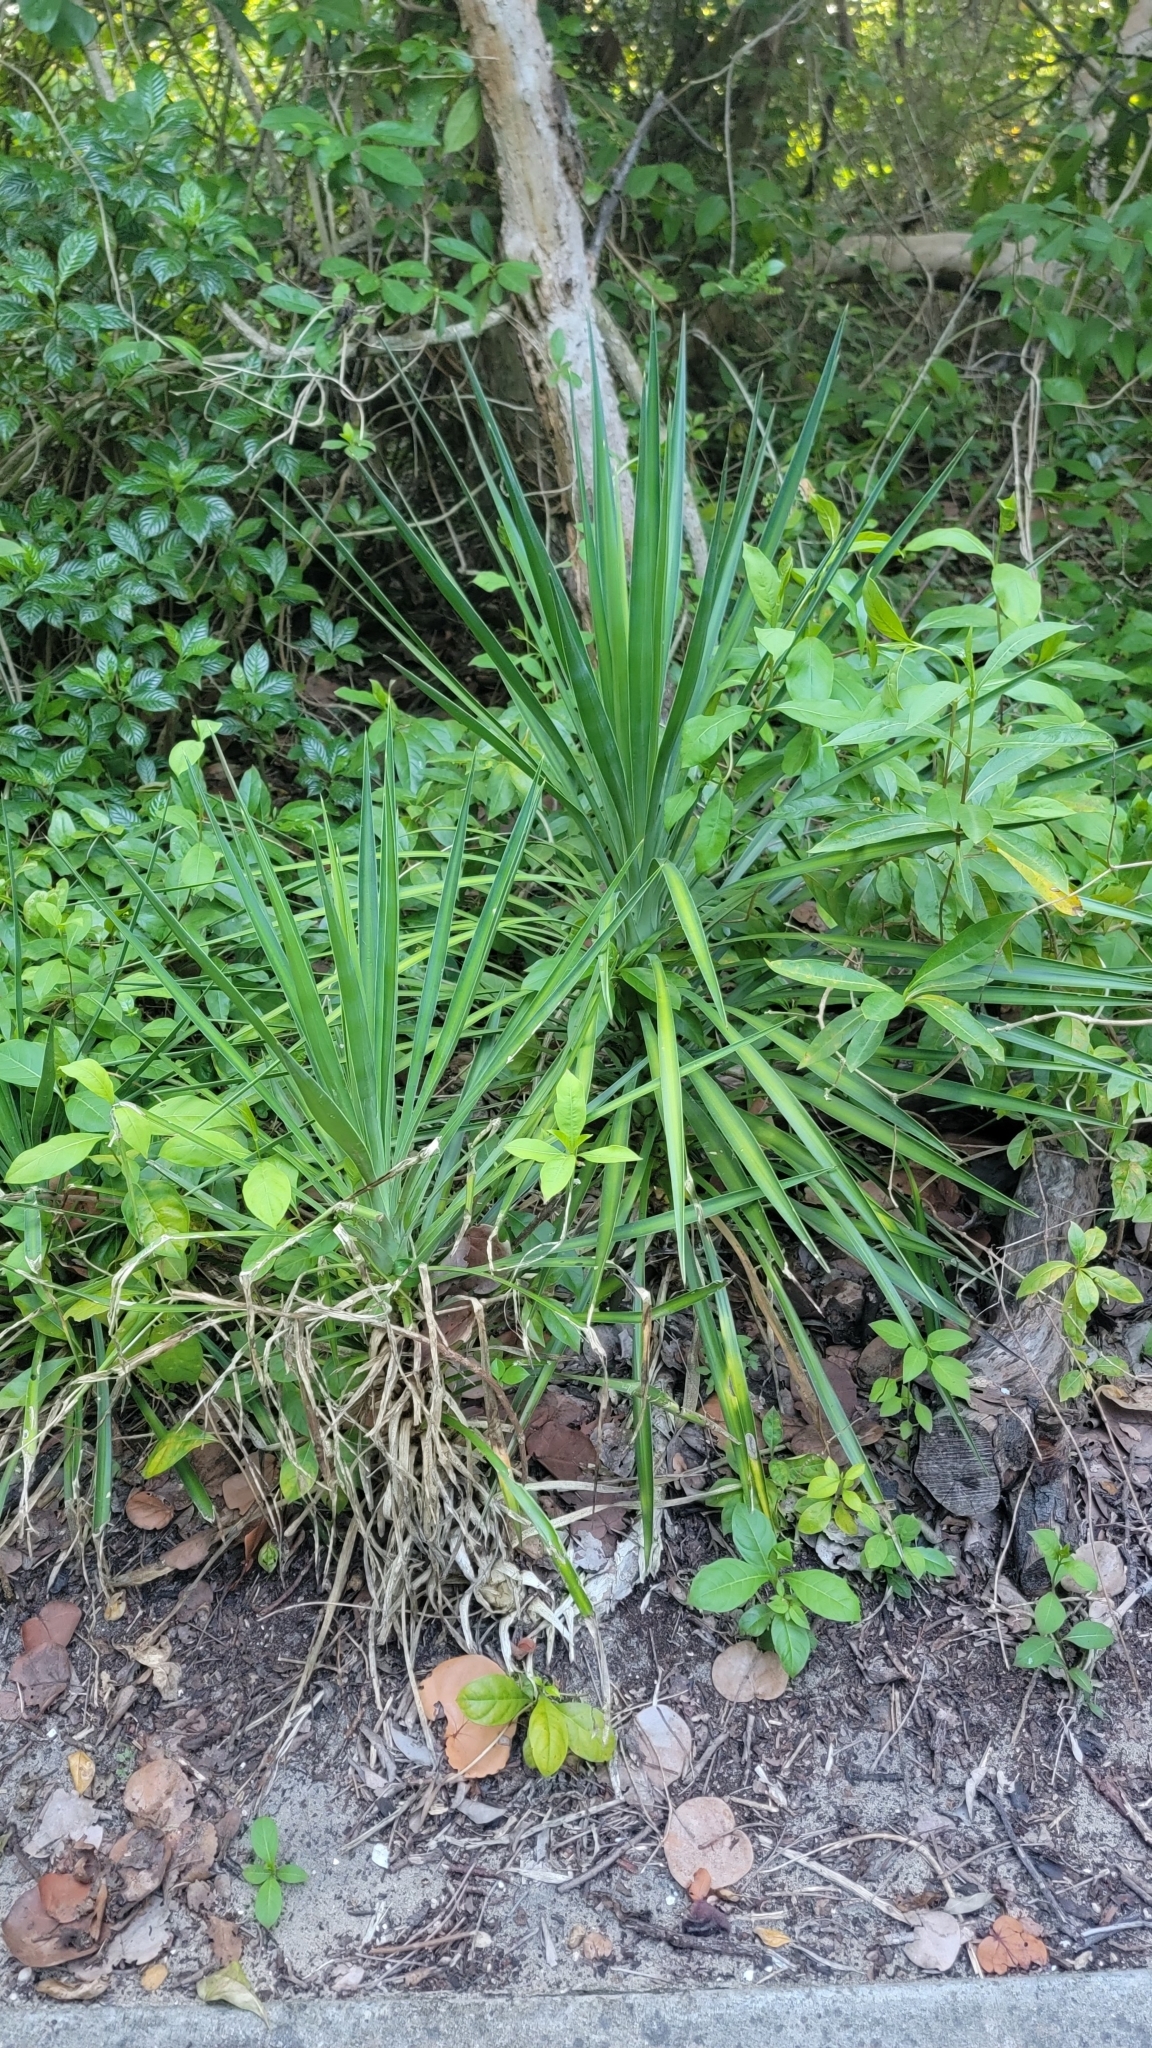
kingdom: Plantae
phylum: Tracheophyta
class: Liliopsida
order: Asparagales
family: Asparagaceae
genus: Yucca
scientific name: Yucca aloifolia
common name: Aloe yucca
